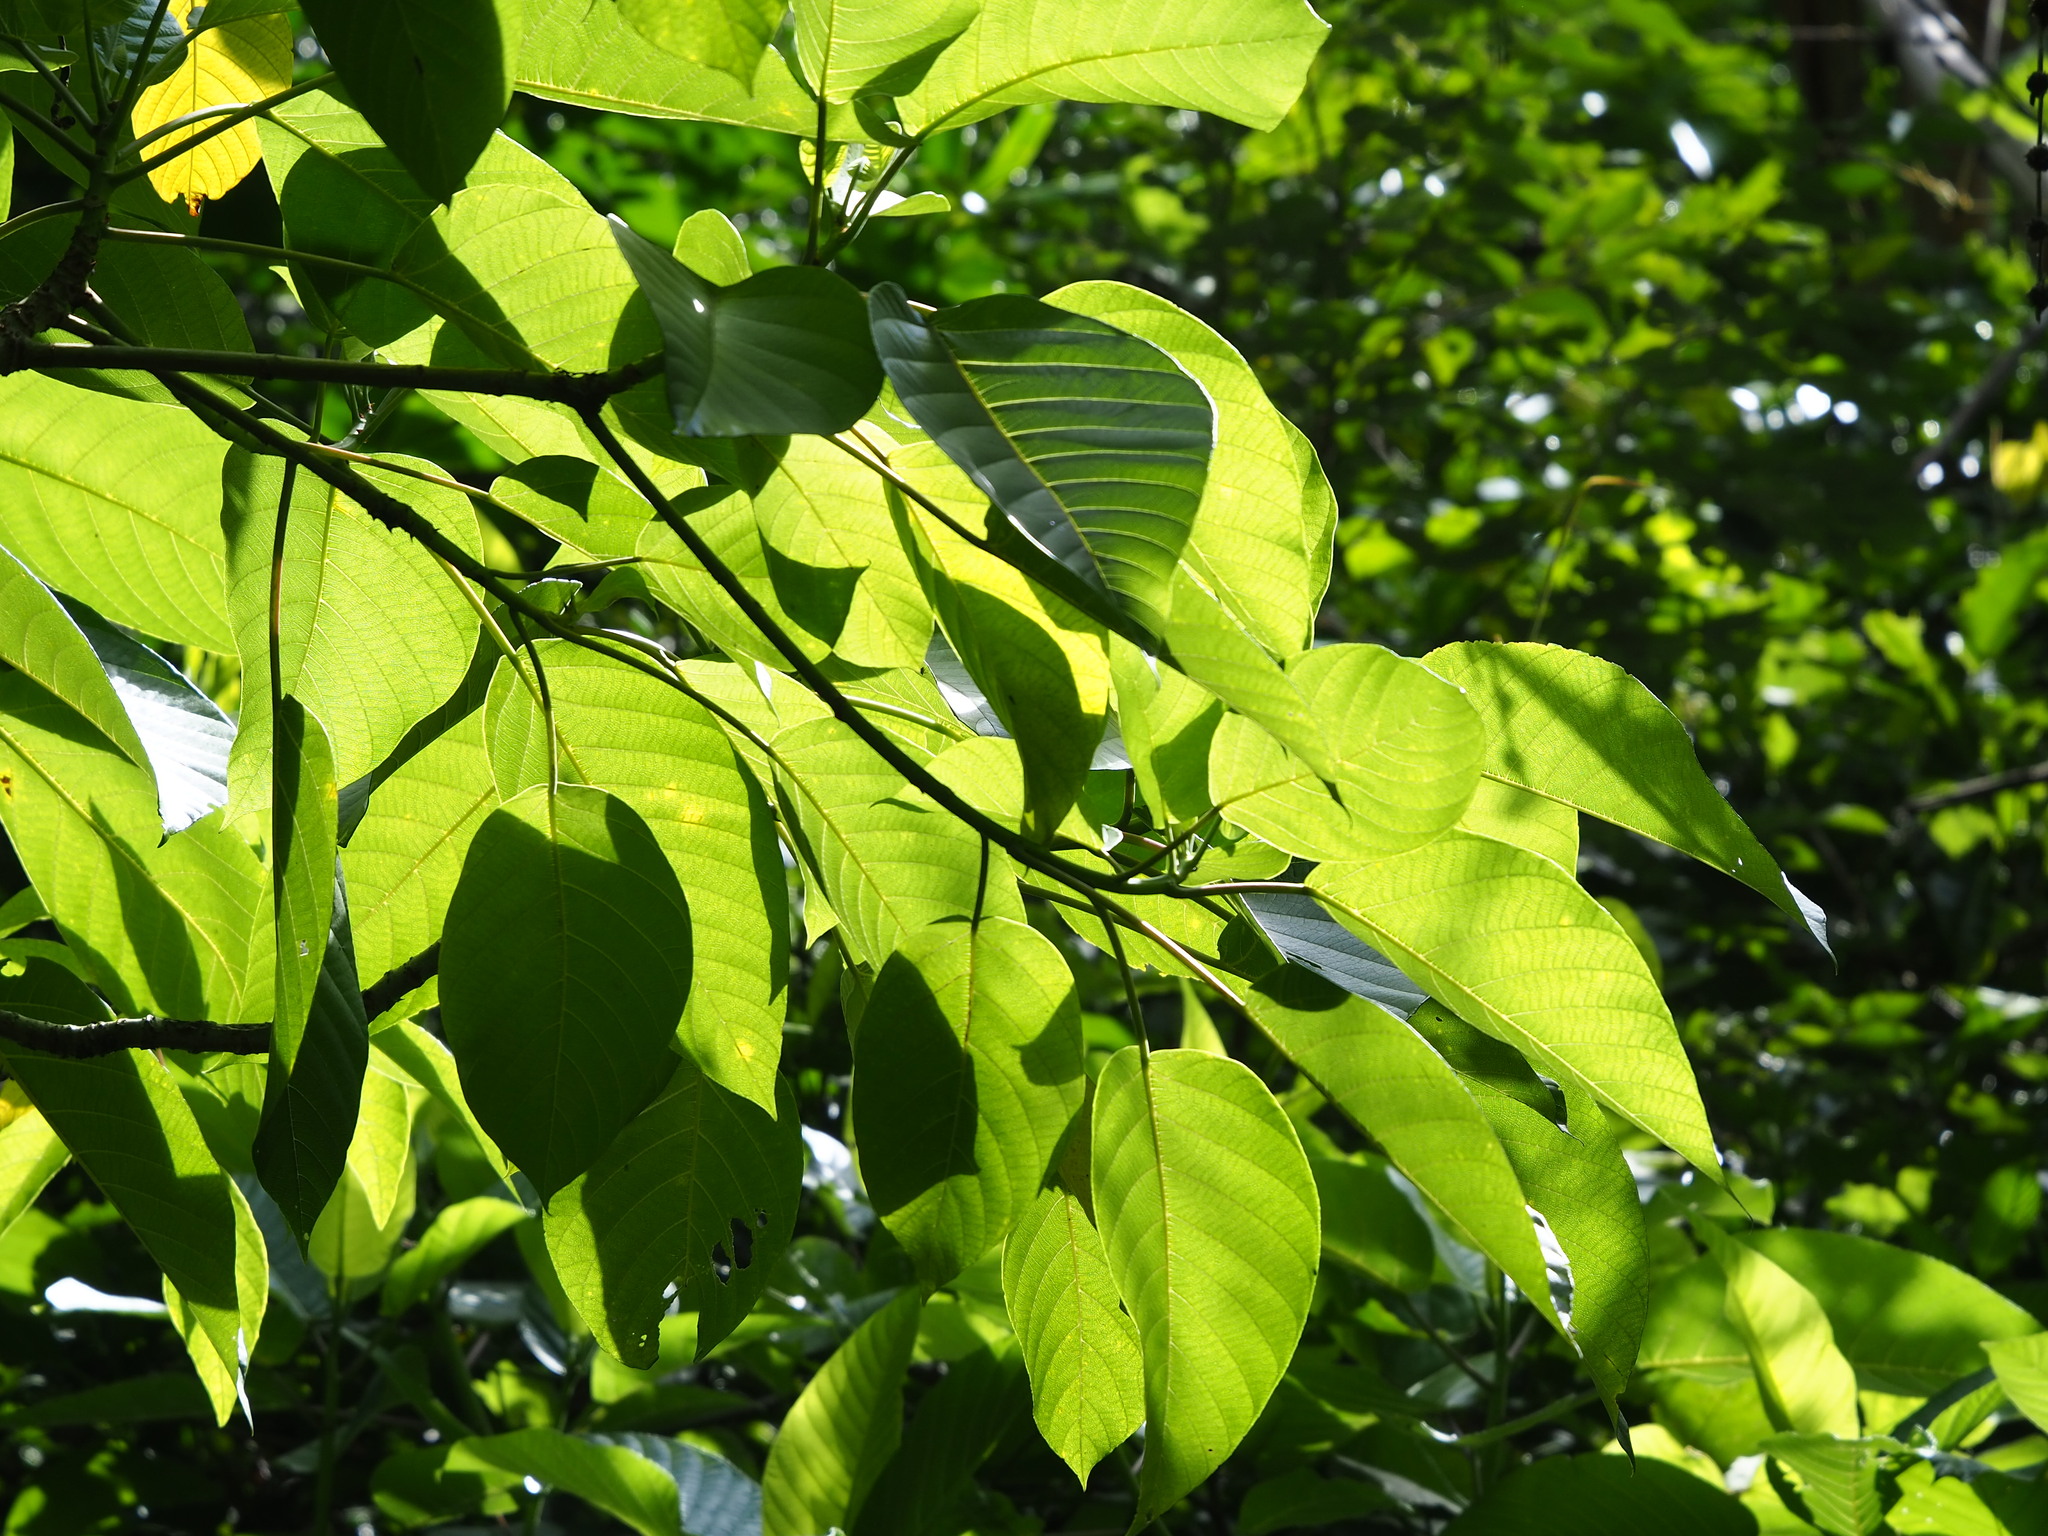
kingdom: Plantae
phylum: Tracheophyta
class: Magnoliopsida
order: Rosales
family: Urticaceae
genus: Dendrocnide
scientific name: Dendrocnide meyeniana
